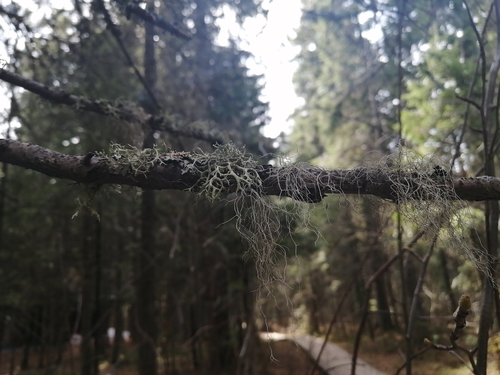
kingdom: Fungi
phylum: Ascomycota
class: Lecanoromycetes
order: Lecanorales
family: Parmeliaceae
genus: Bryoria
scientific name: Bryoria
